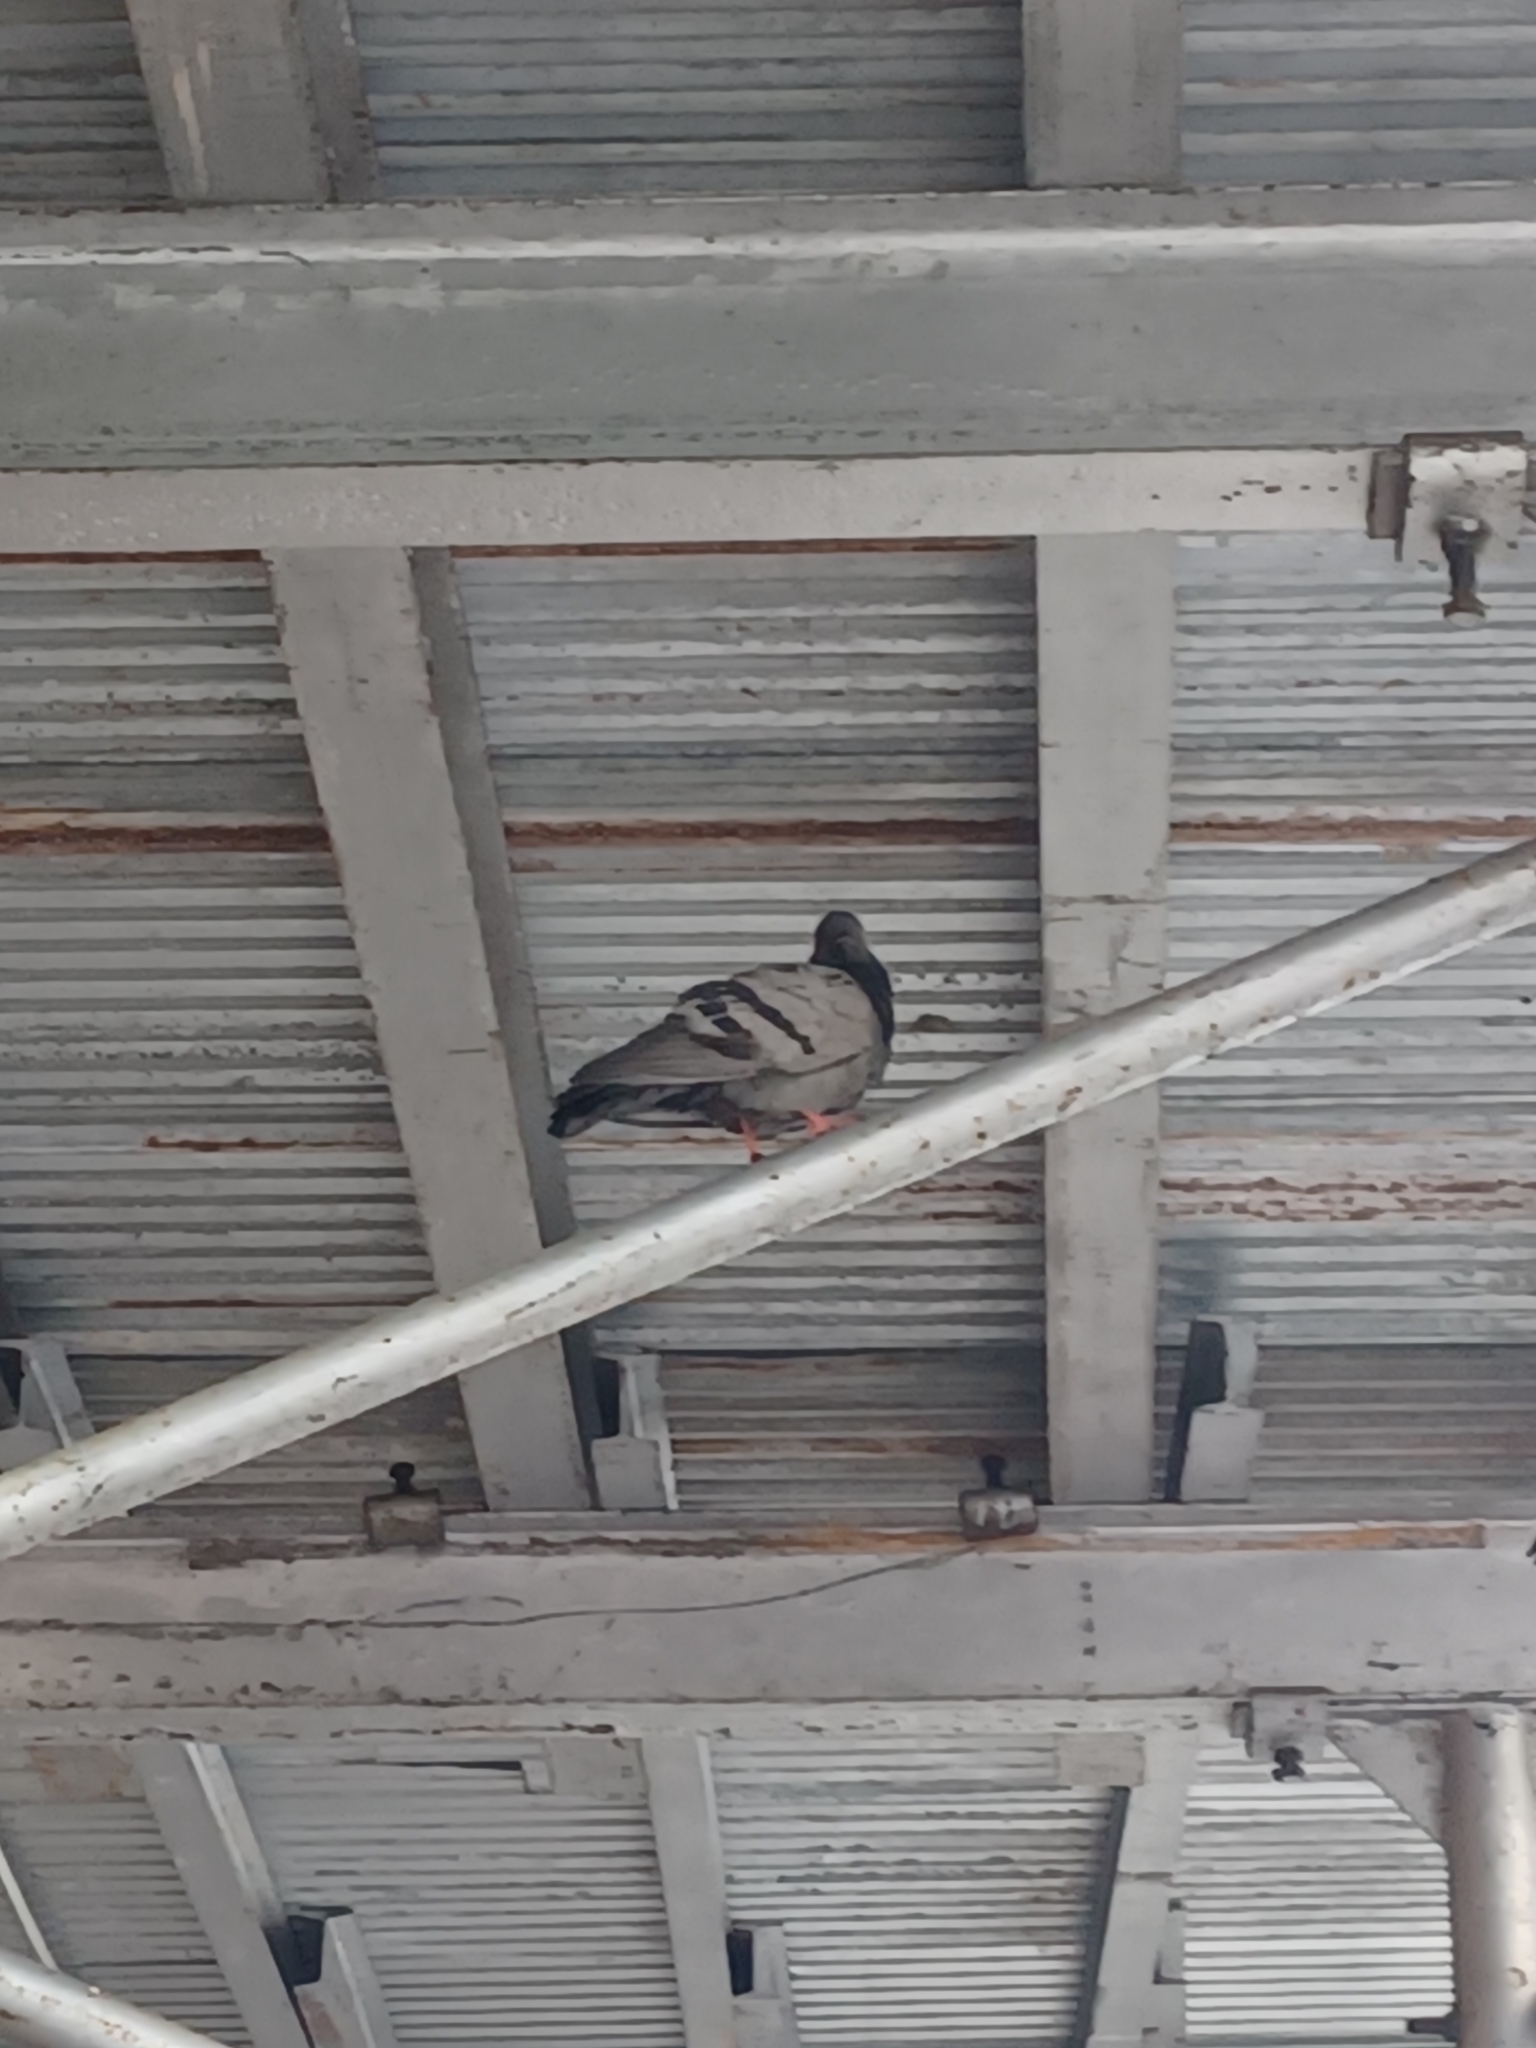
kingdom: Animalia
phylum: Chordata
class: Aves
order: Columbiformes
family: Columbidae
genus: Columba
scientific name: Columba livia
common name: Rock pigeon
